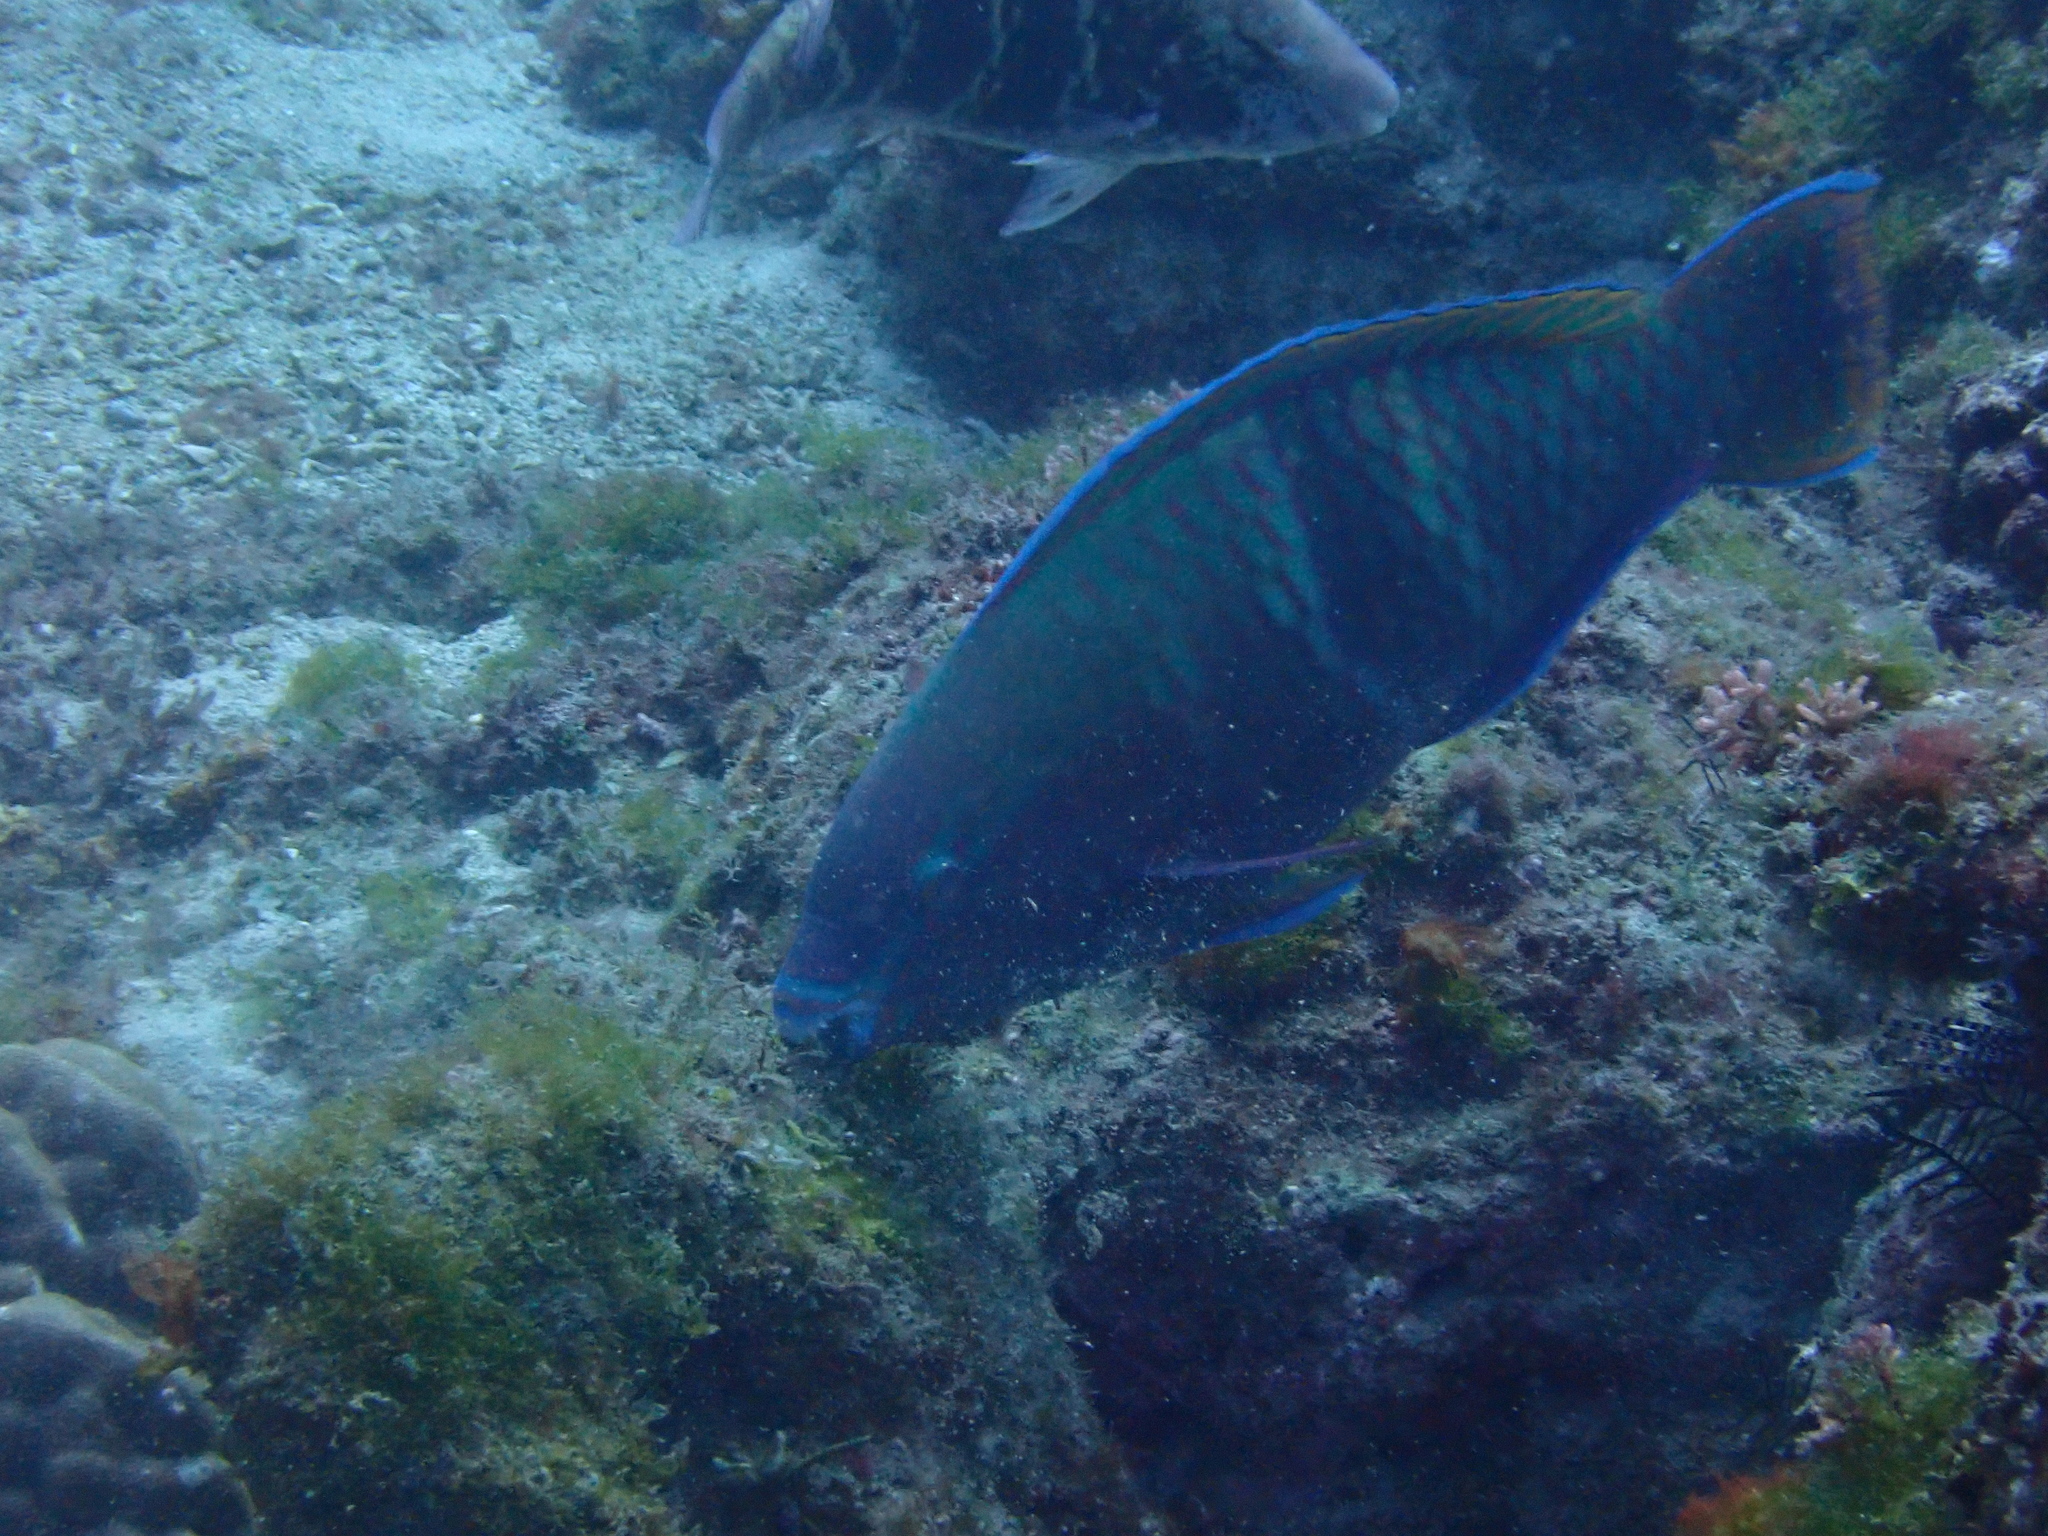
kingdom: Animalia
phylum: Chordata
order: Perciformes
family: Scaridae
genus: Scarus
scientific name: Scarus schlegeli
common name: Schlegel's parrotfish
